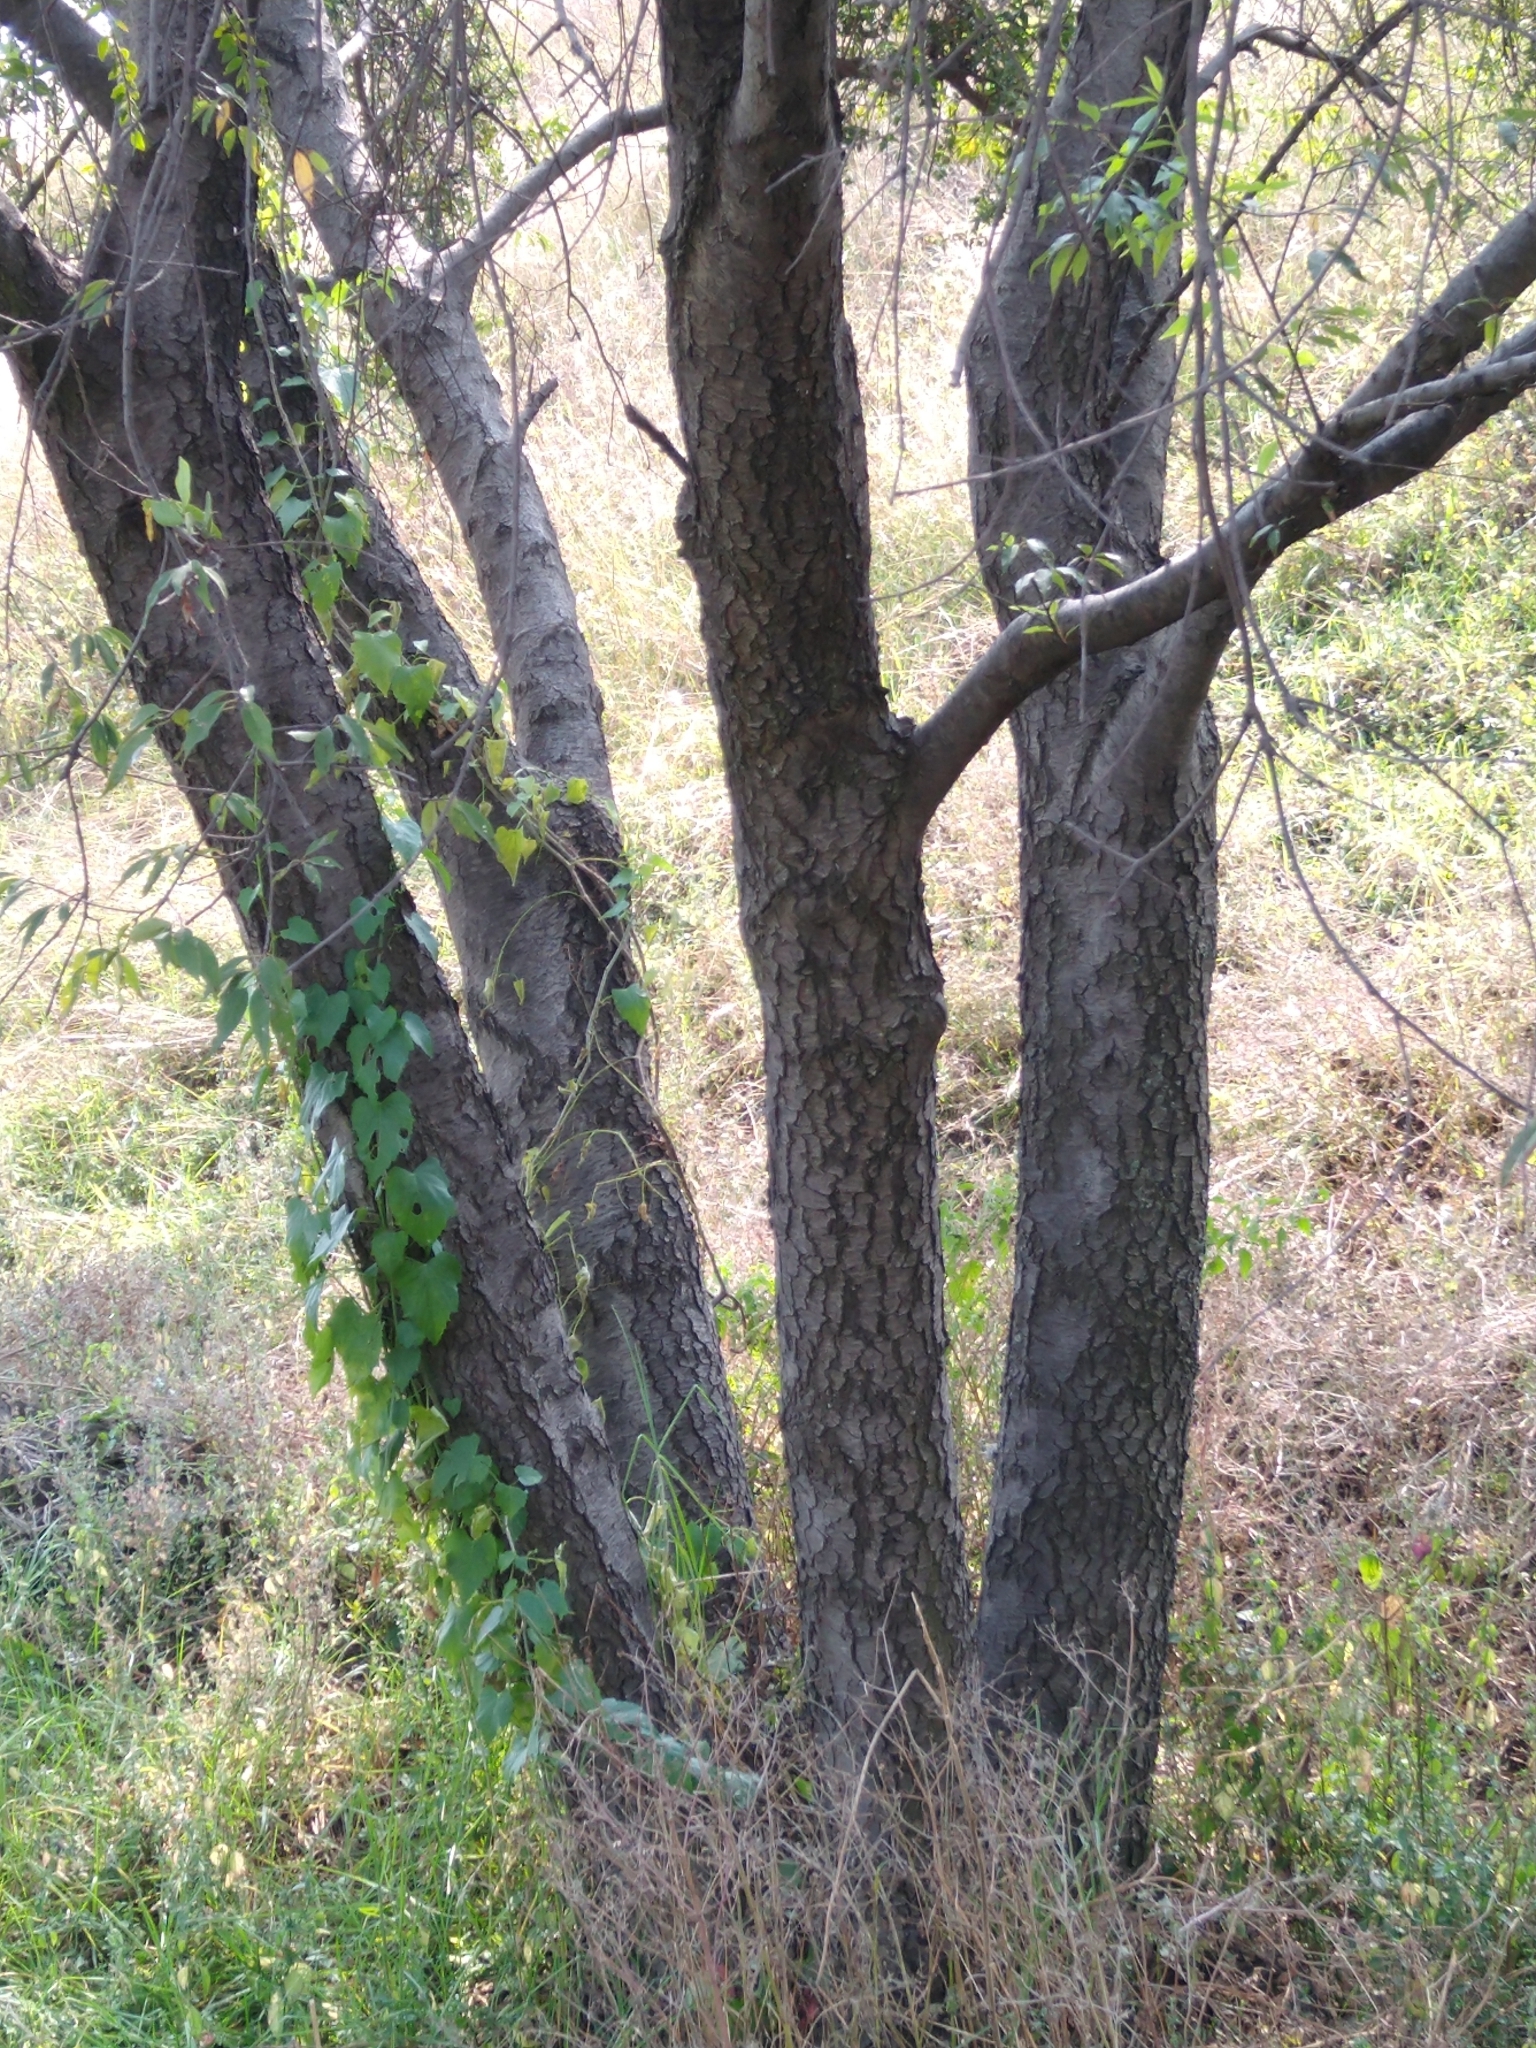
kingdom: Plantae
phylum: Tracheophyta
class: Magnoliopsida
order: Rosales
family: Rosaceae
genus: Prunus
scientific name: Prunus serotina
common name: Black cherry
